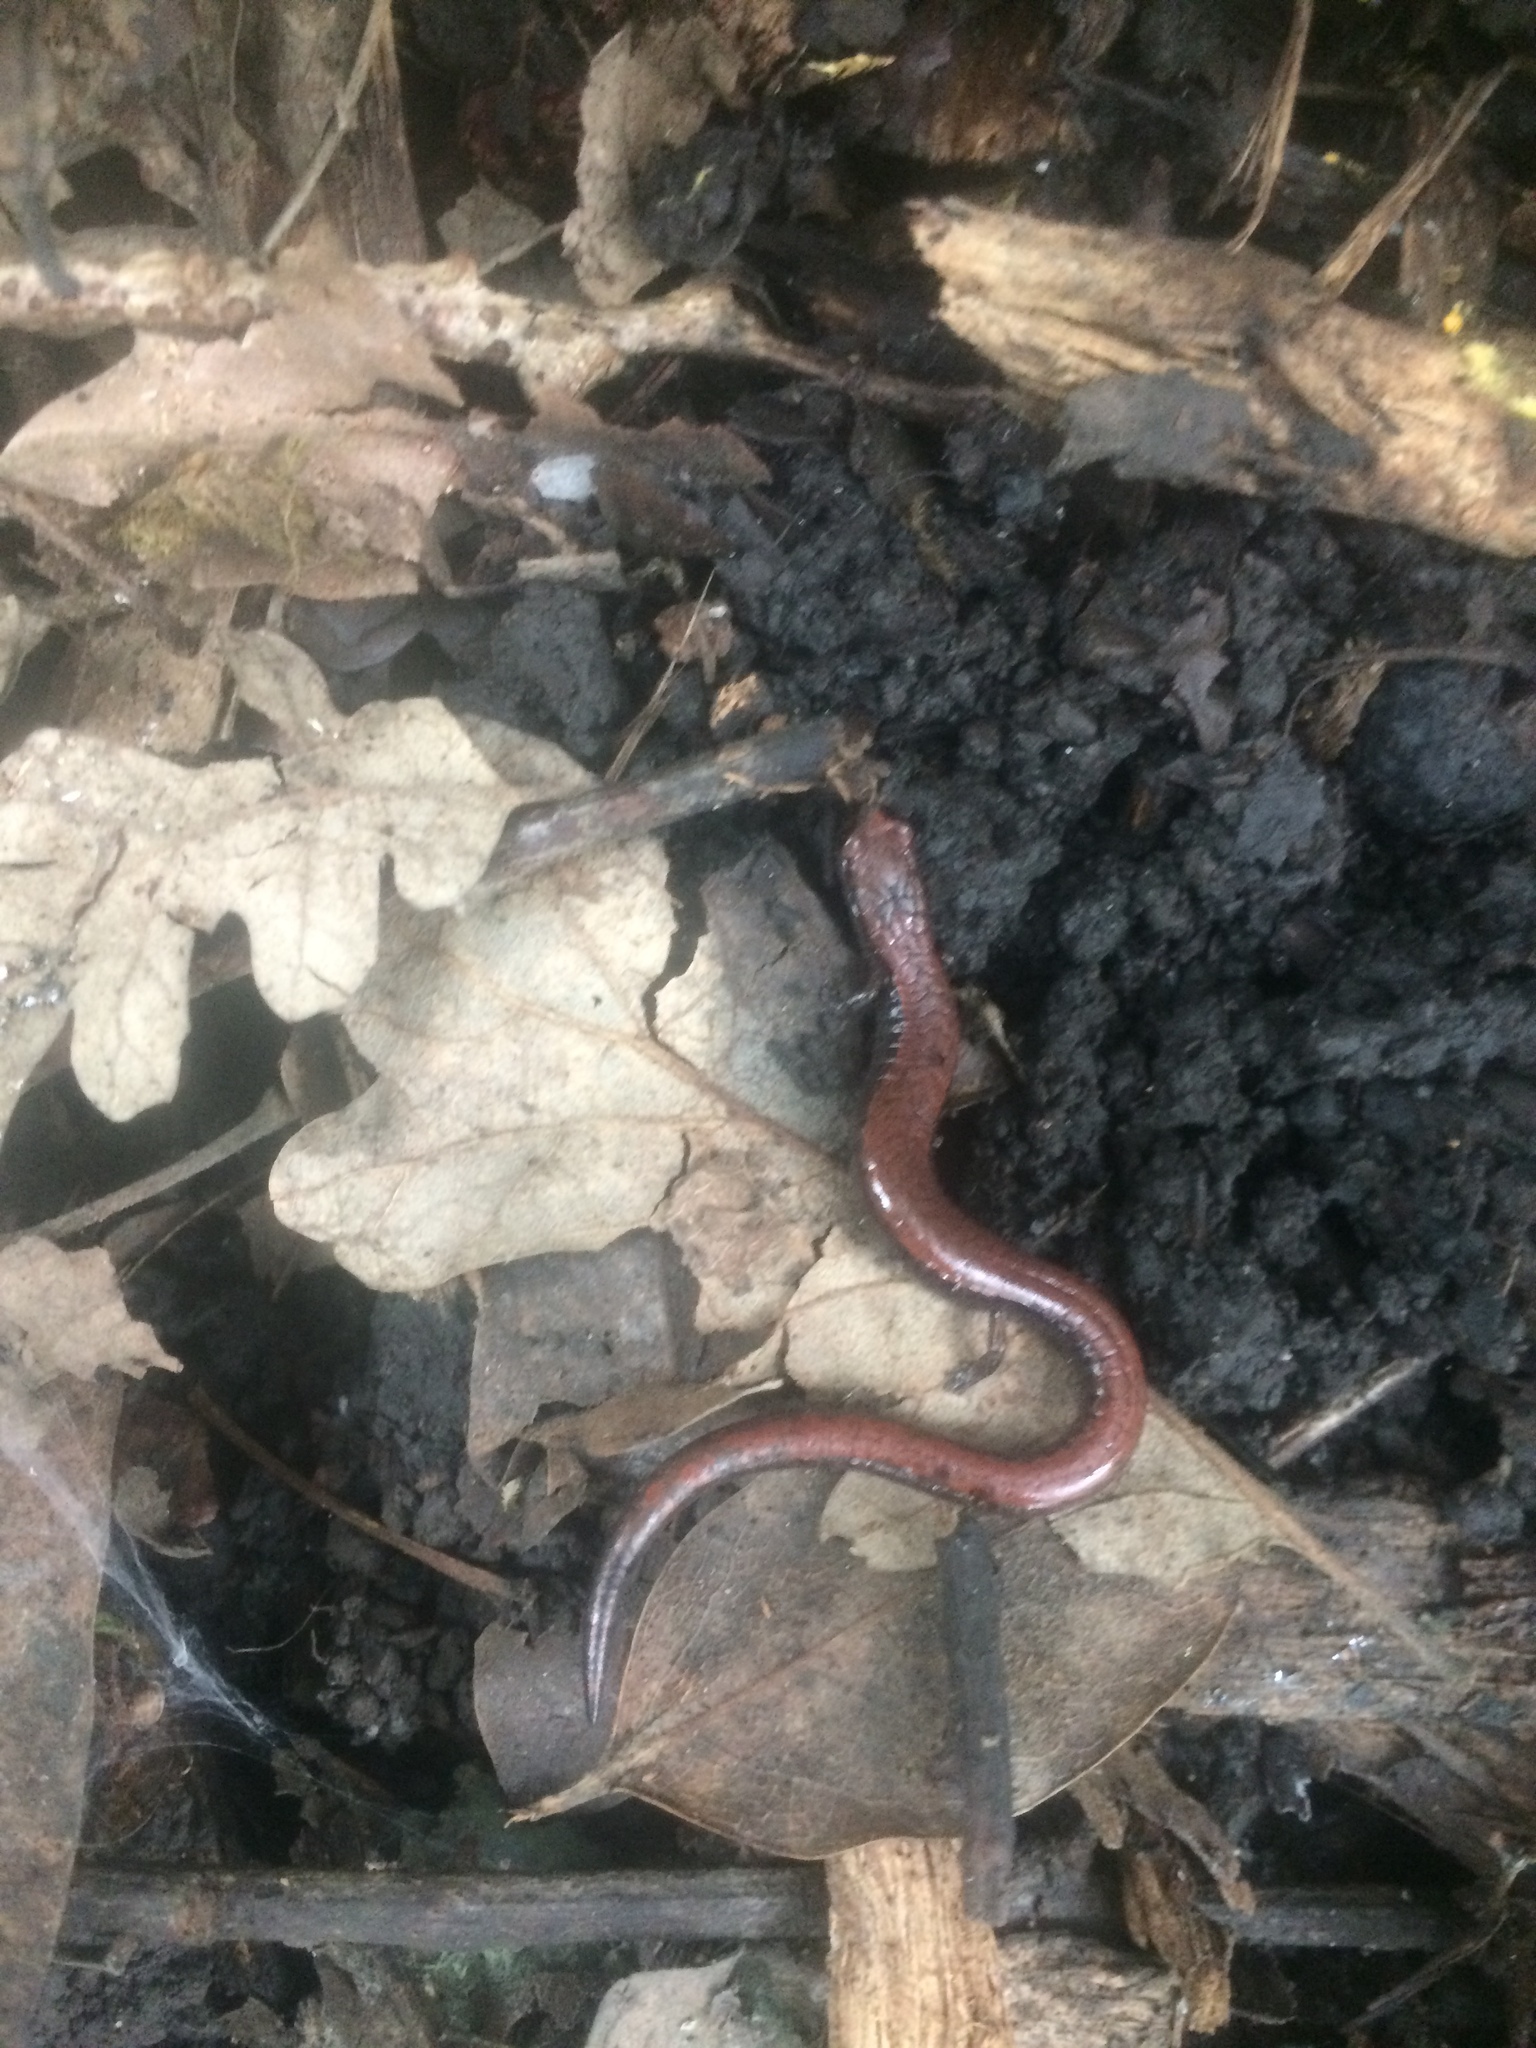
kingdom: Animalia
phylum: Chordata
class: Amphibia
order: Caudata
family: Plethodontidae
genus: Batrachoseps
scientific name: Batrachoseps attenuatus
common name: California slender salamander
